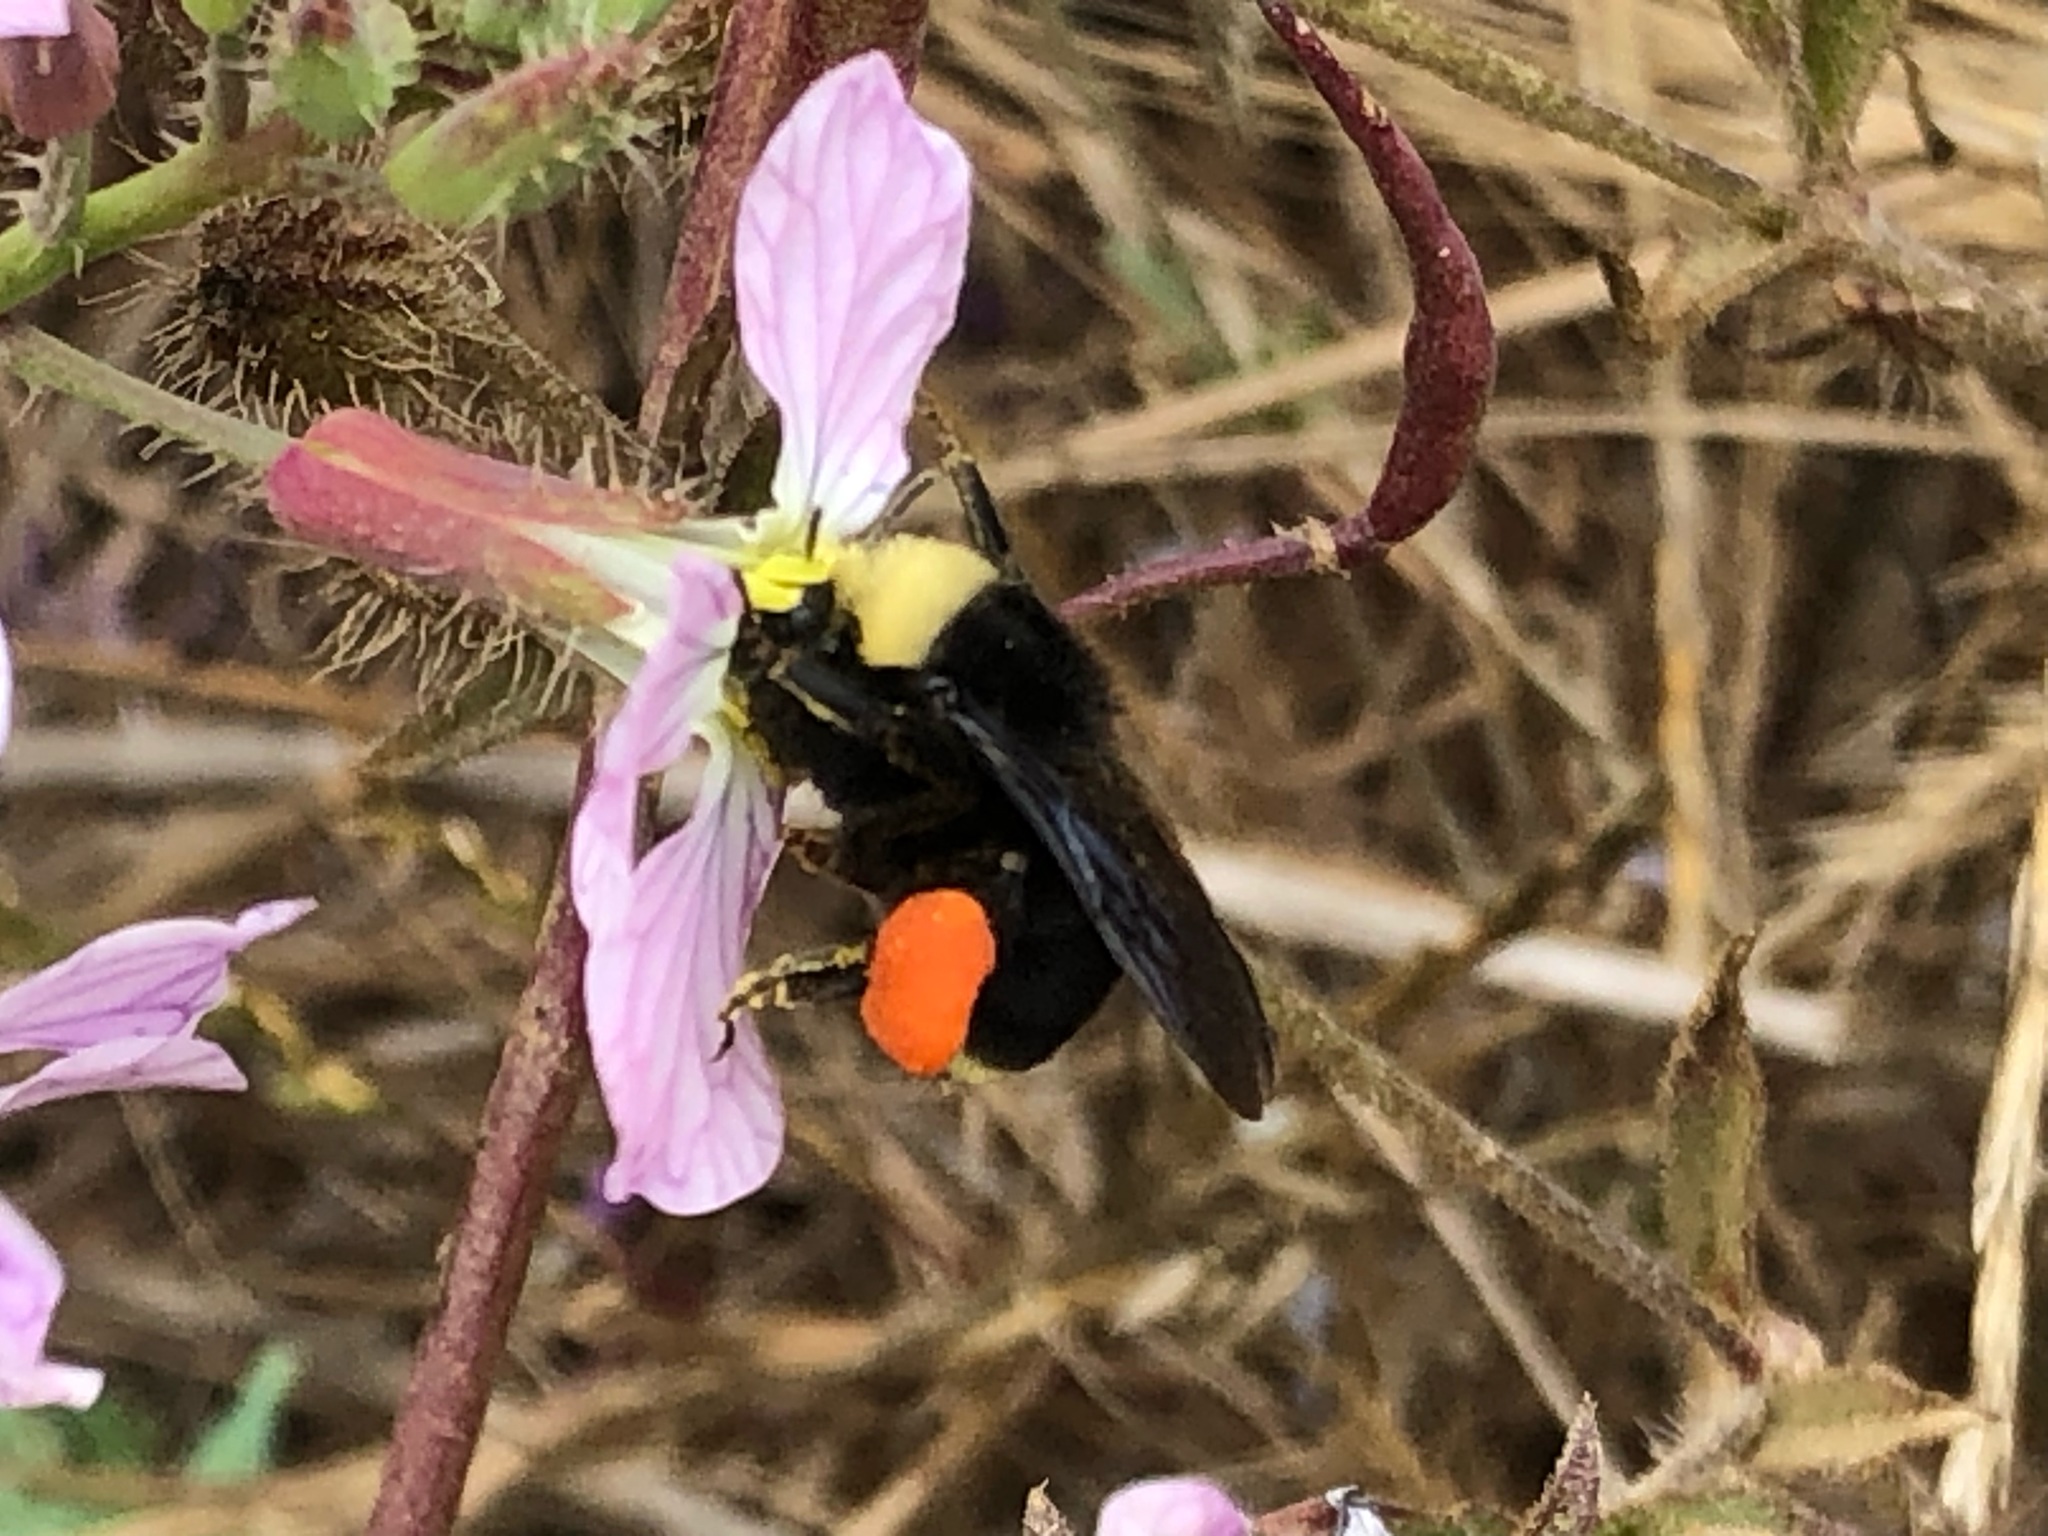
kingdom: Animalia
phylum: Arthropoda
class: Insecta
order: Hymenoptera
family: Apidae
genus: Bombus
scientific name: Bombus vosnesenskii
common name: Vosnesensky bumble bee
